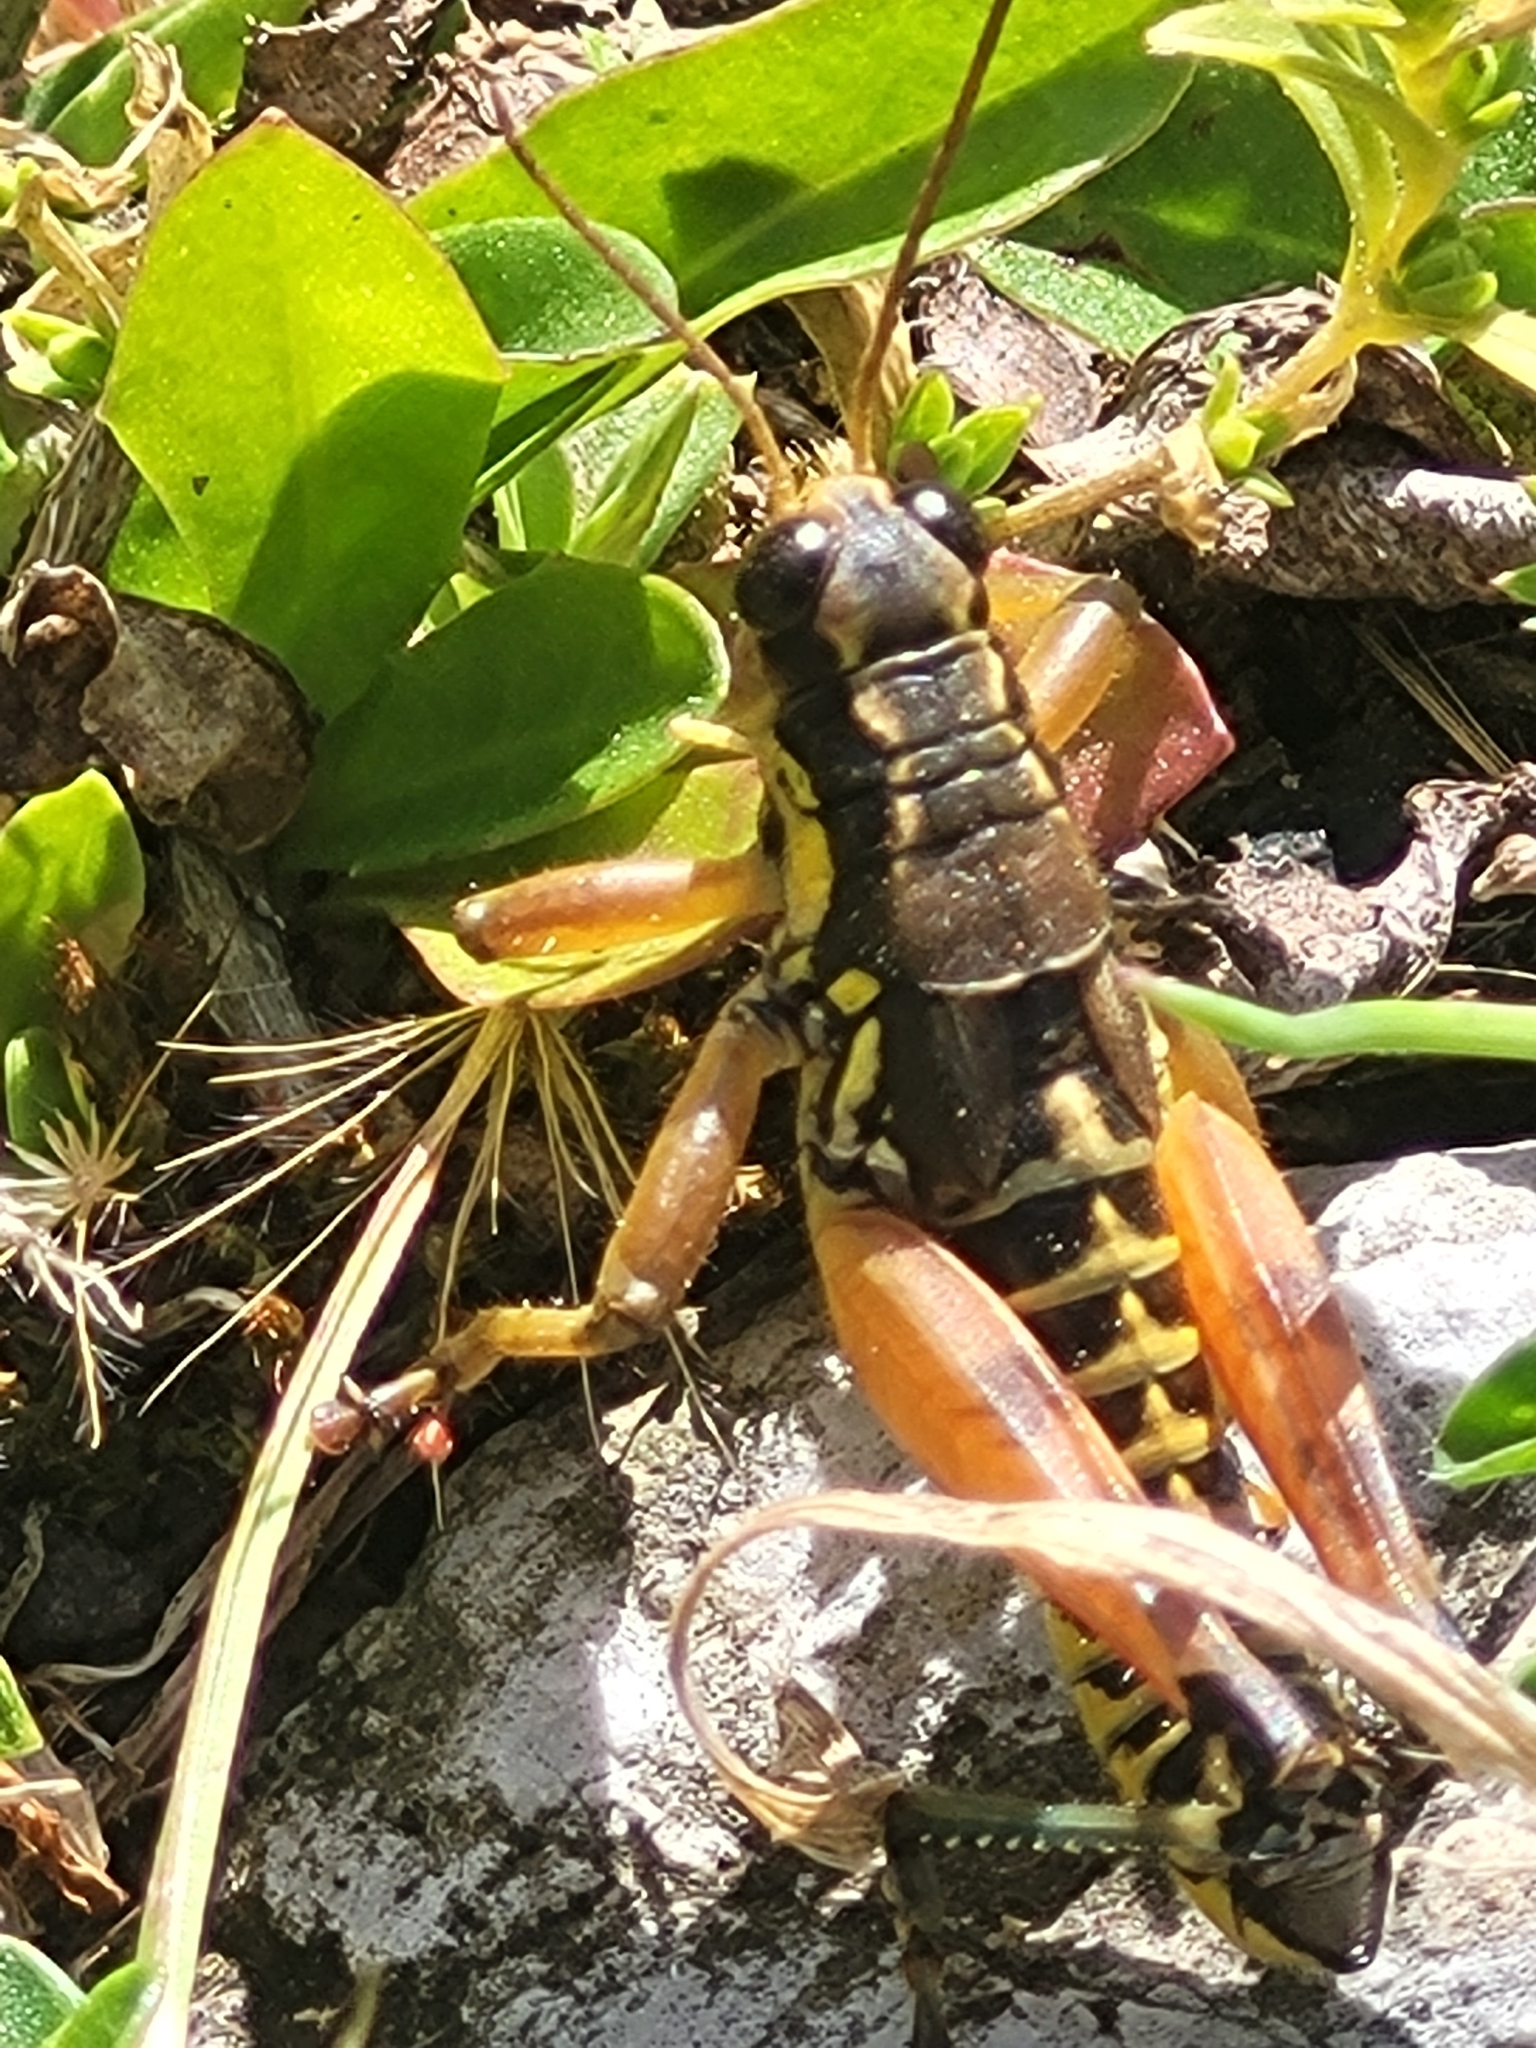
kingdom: Animalia
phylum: Arthropoda
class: Insecta
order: Orthoptera
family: Acrididae
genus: Podisma
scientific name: Podisma pedestris
